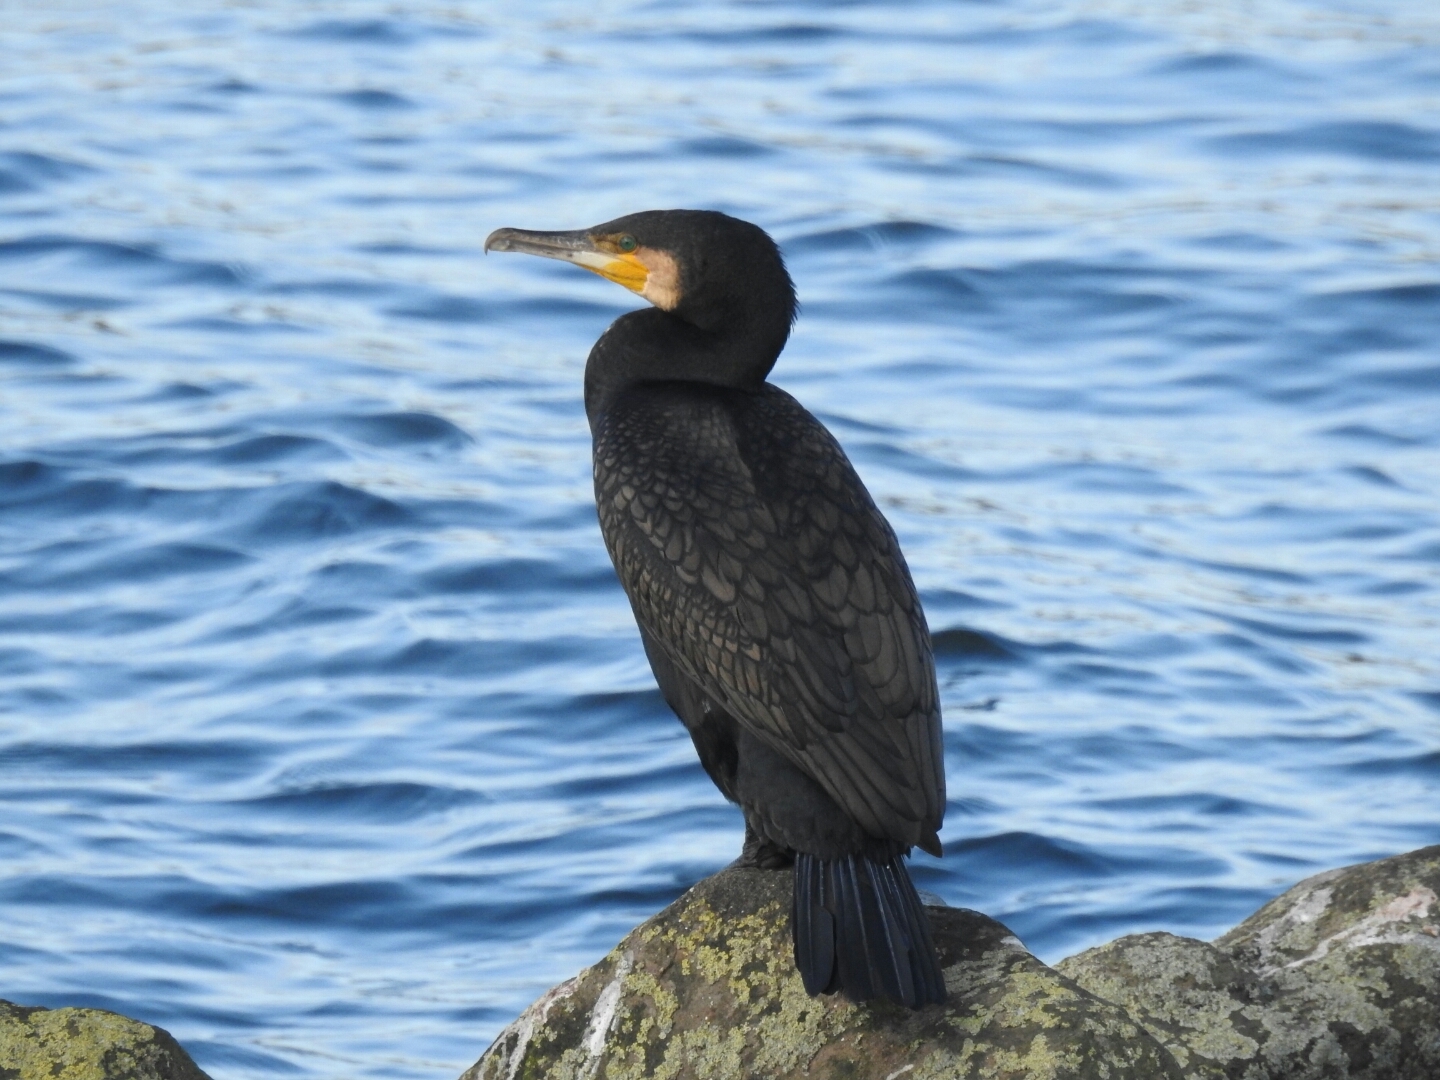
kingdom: Animalia
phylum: Chordata
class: Aves
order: Suliformes
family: Phalacrocoracidae
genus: Phalacrocorax
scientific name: Phalacrocorax carbo
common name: Great cormorant
